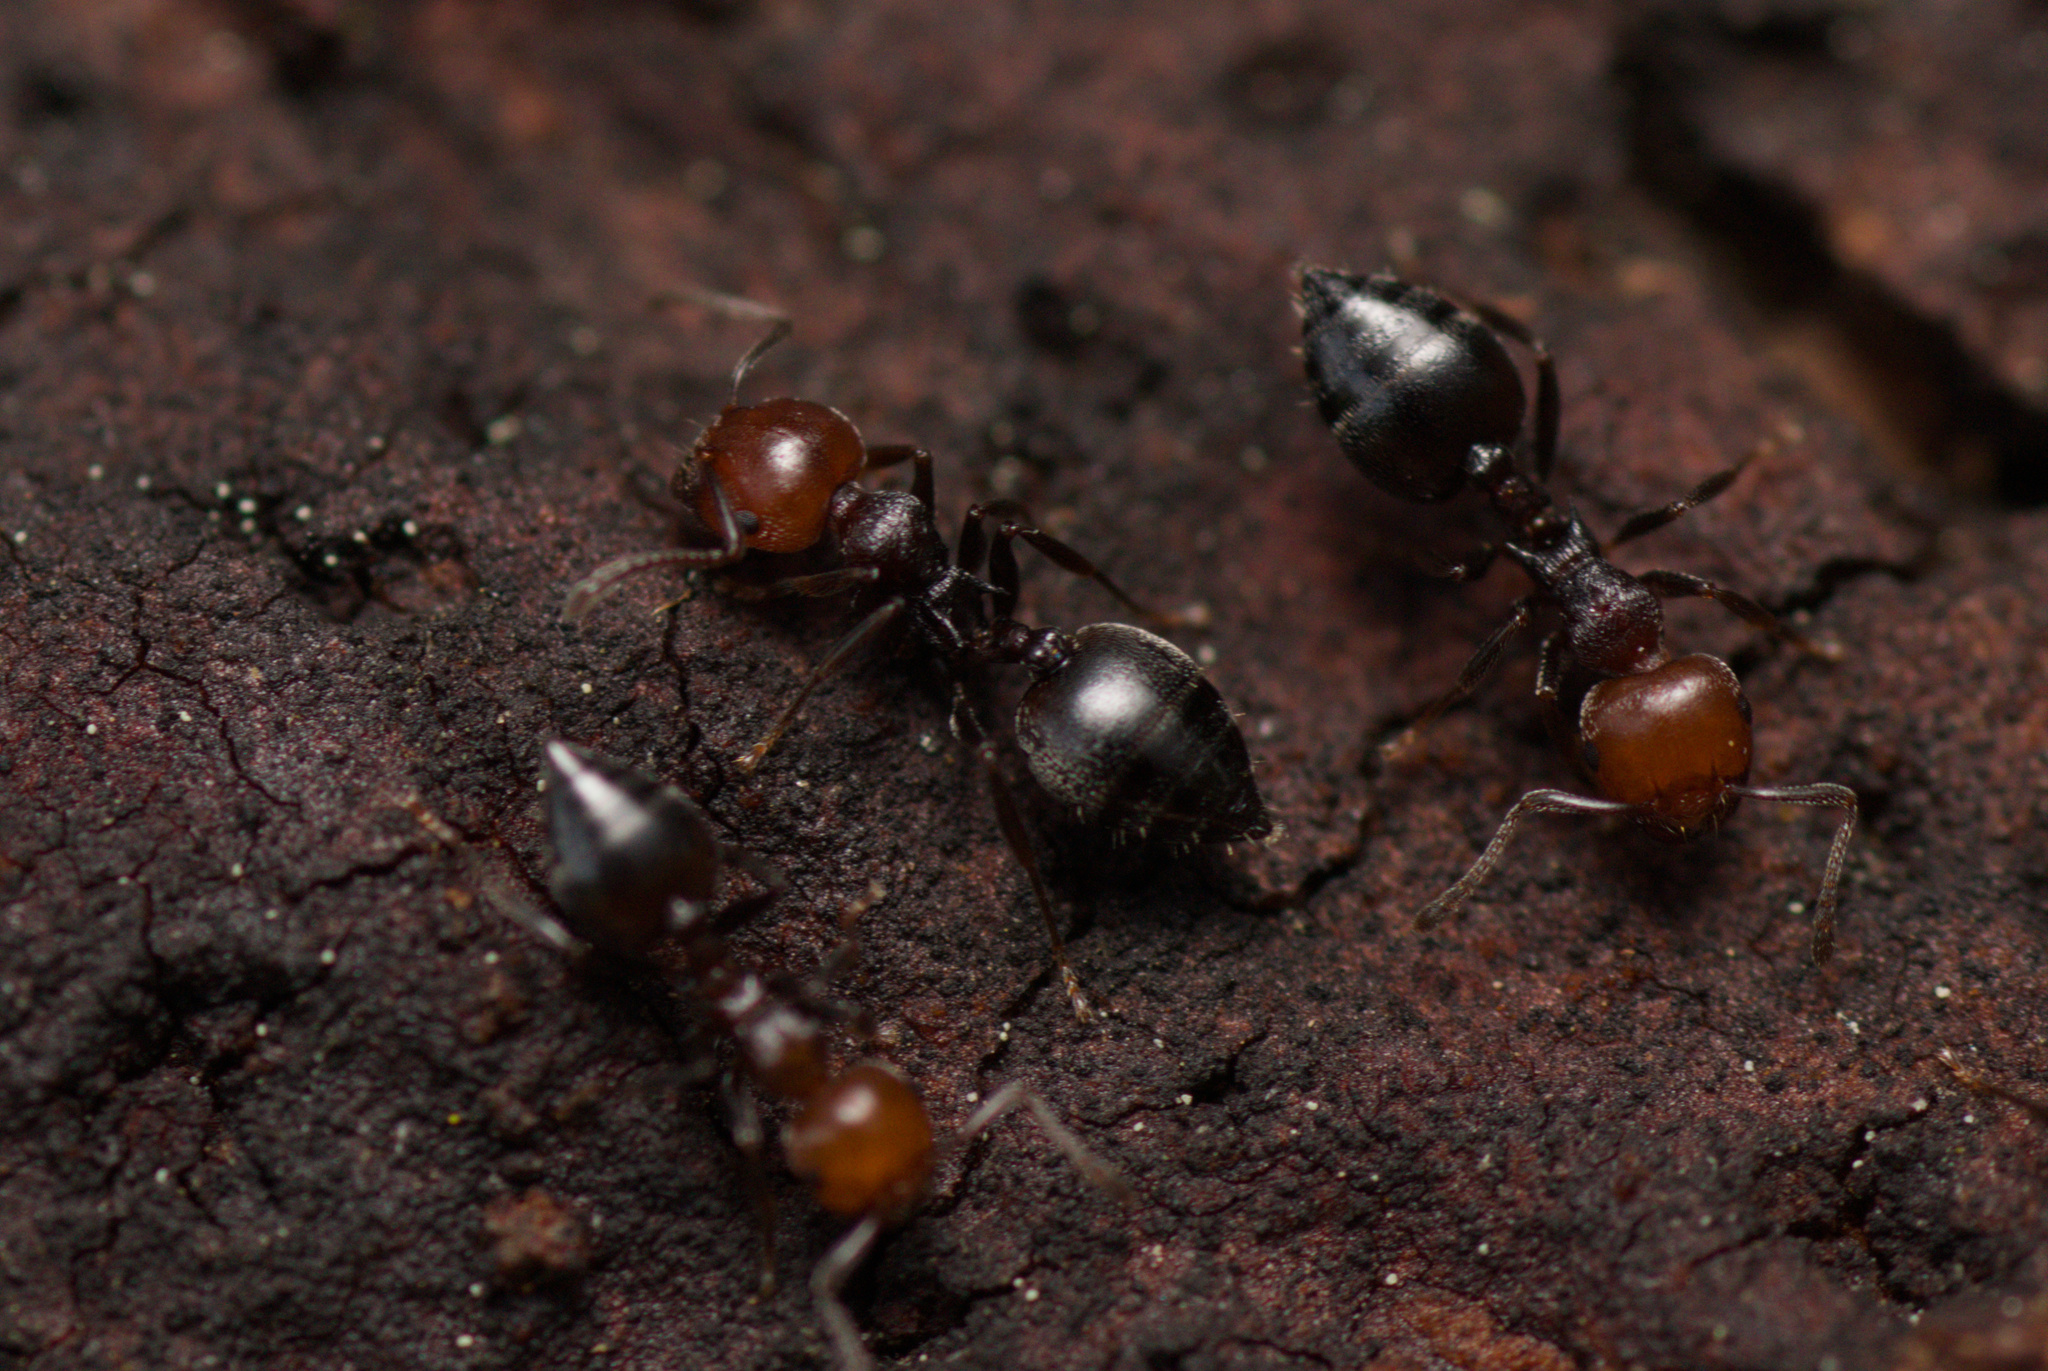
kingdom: Animalia
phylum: Arthropoda
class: Insecta
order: Hymenoptera
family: Formicidae
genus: Crematogaster
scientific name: Crematogaster scutellaris
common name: Fourmi du liège
